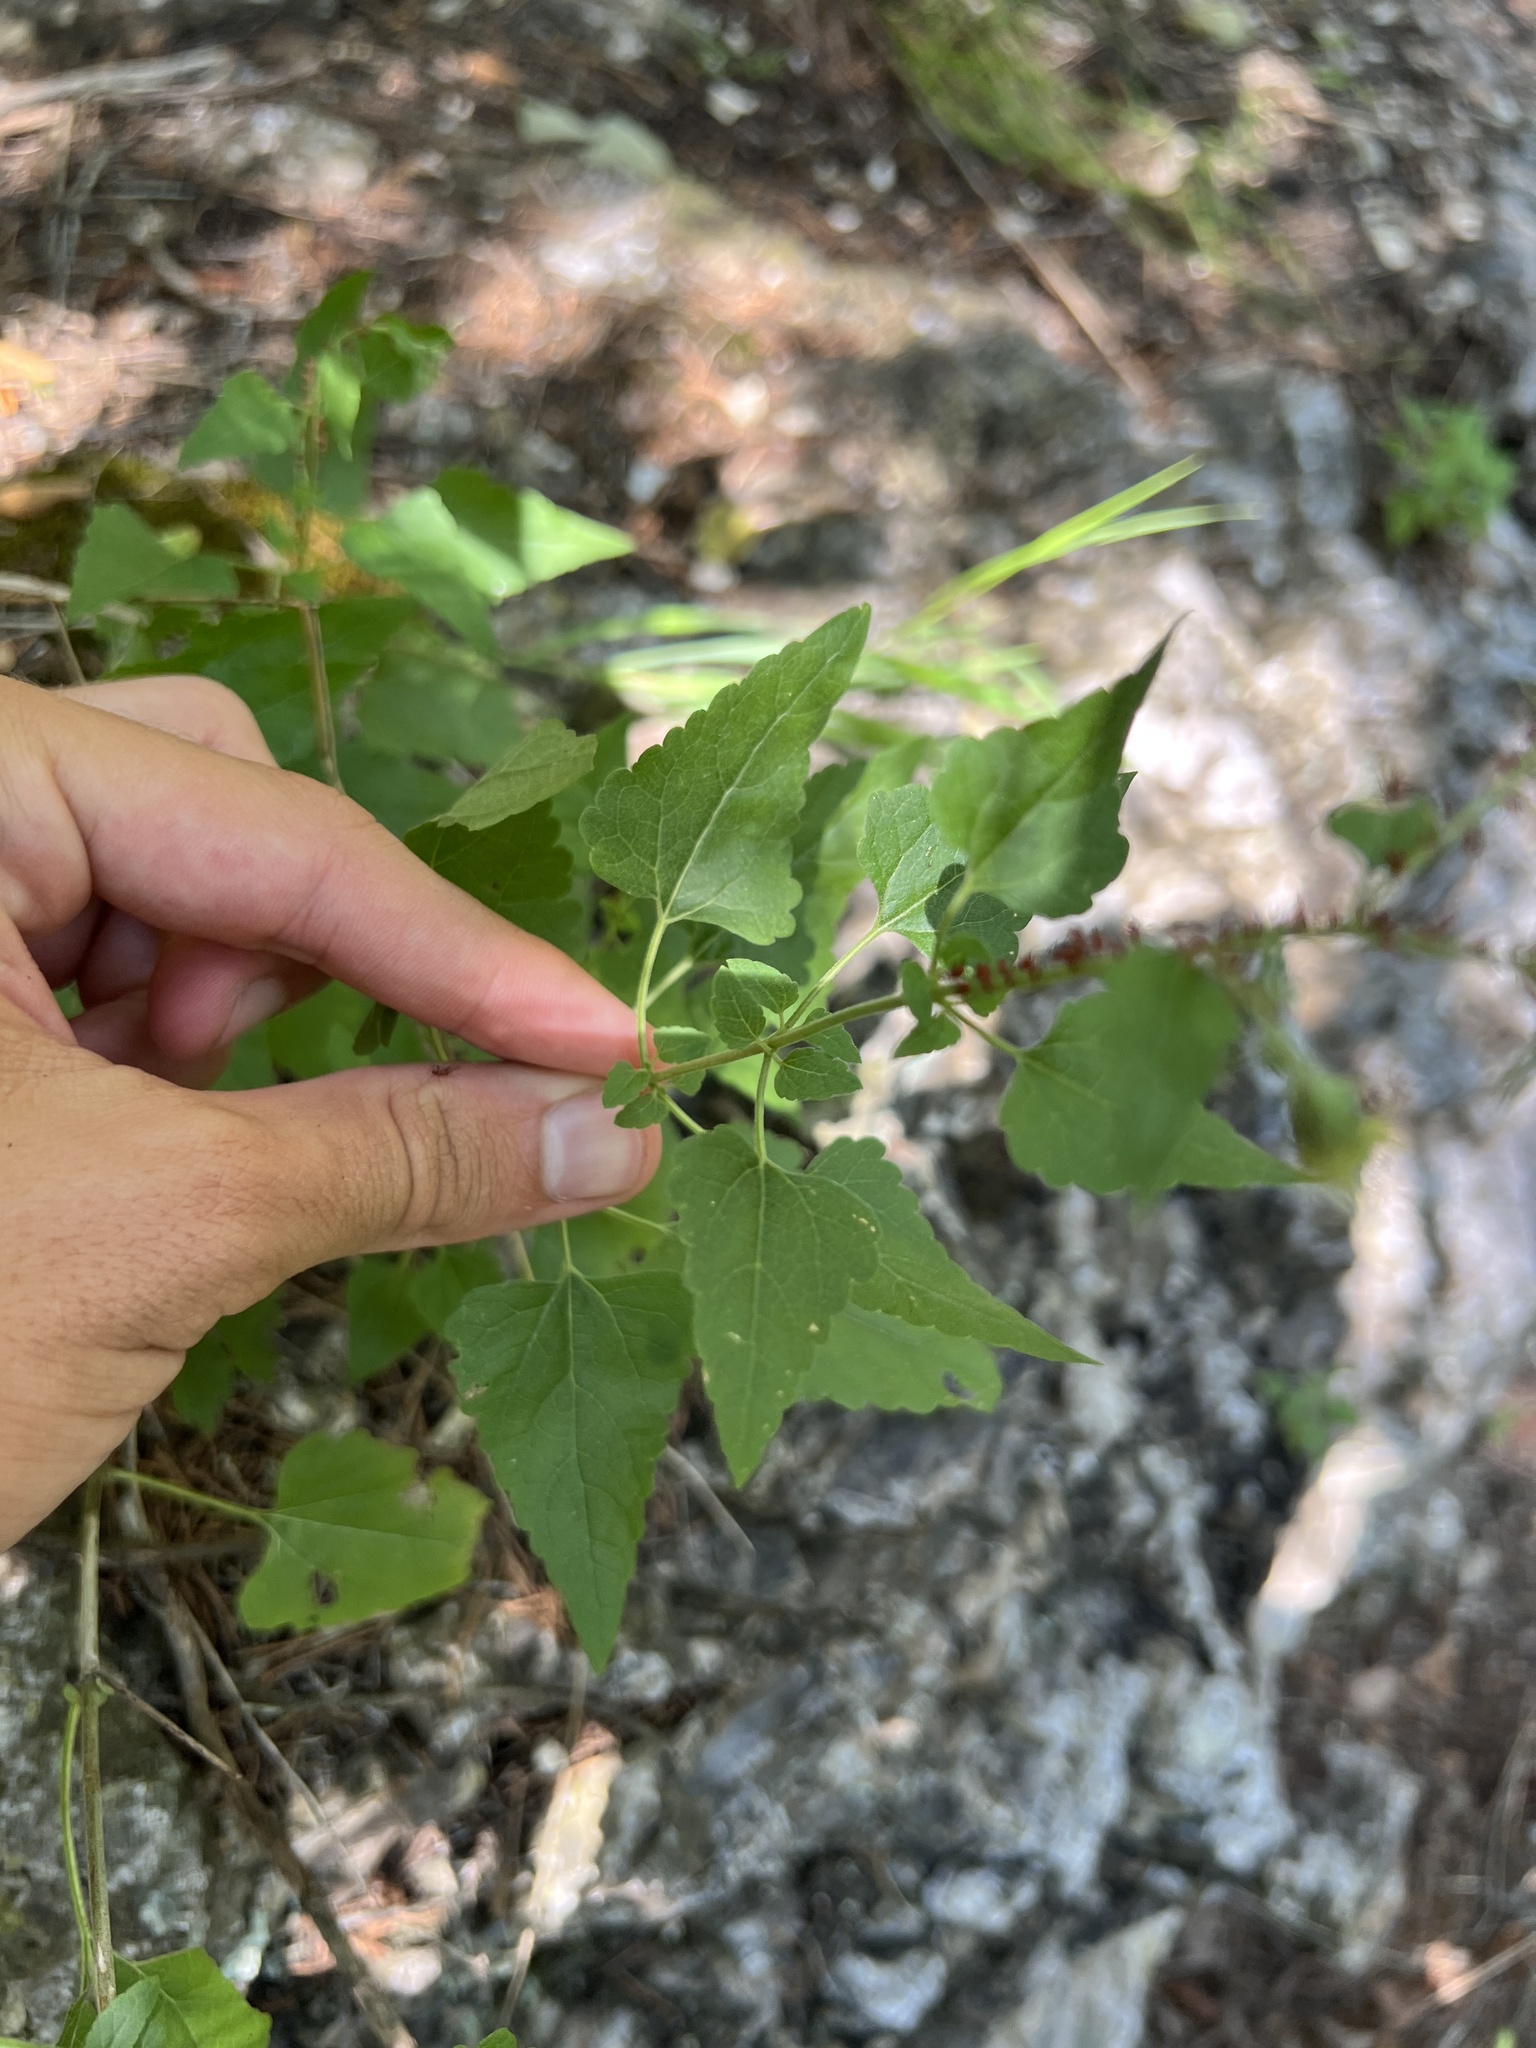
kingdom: Plantae
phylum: Tracheophyta
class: Magnoliopsida
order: Asterales
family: Asteraceae
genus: Brickellia
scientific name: Brickellia grandiflora
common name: Large-flowered brickellia
